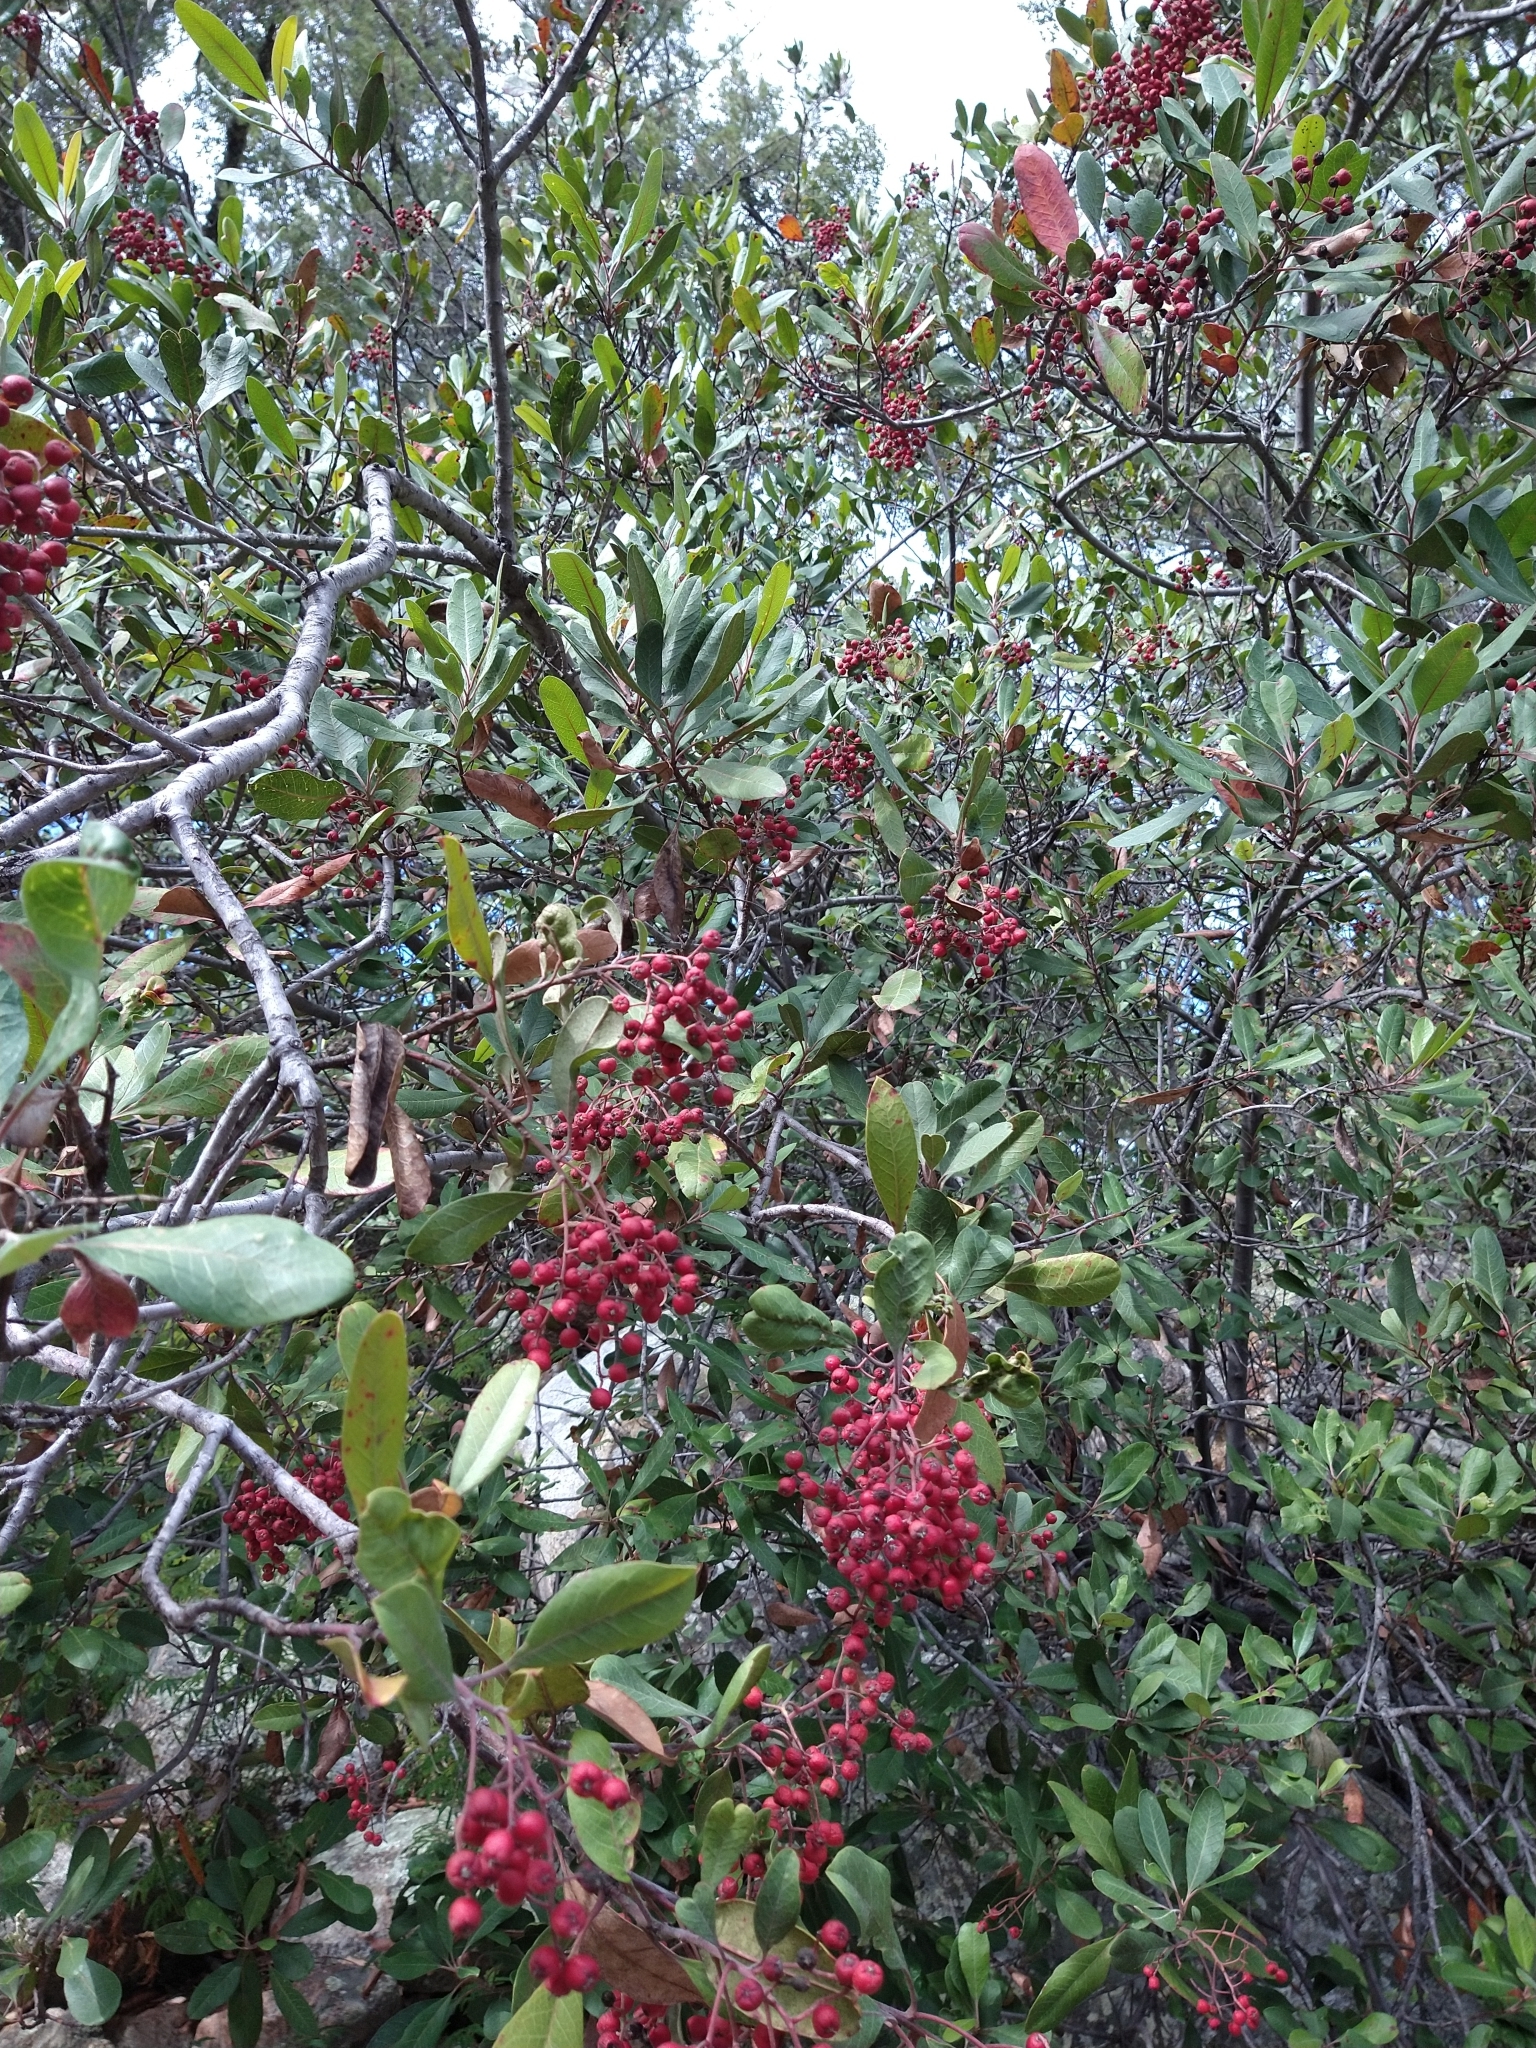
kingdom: Plantae
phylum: Tracheophyta
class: Magnoliopsida
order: Rosales
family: Rosaceae
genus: Heteromeles
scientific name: Heteromeles arbutifolia
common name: California-holly
